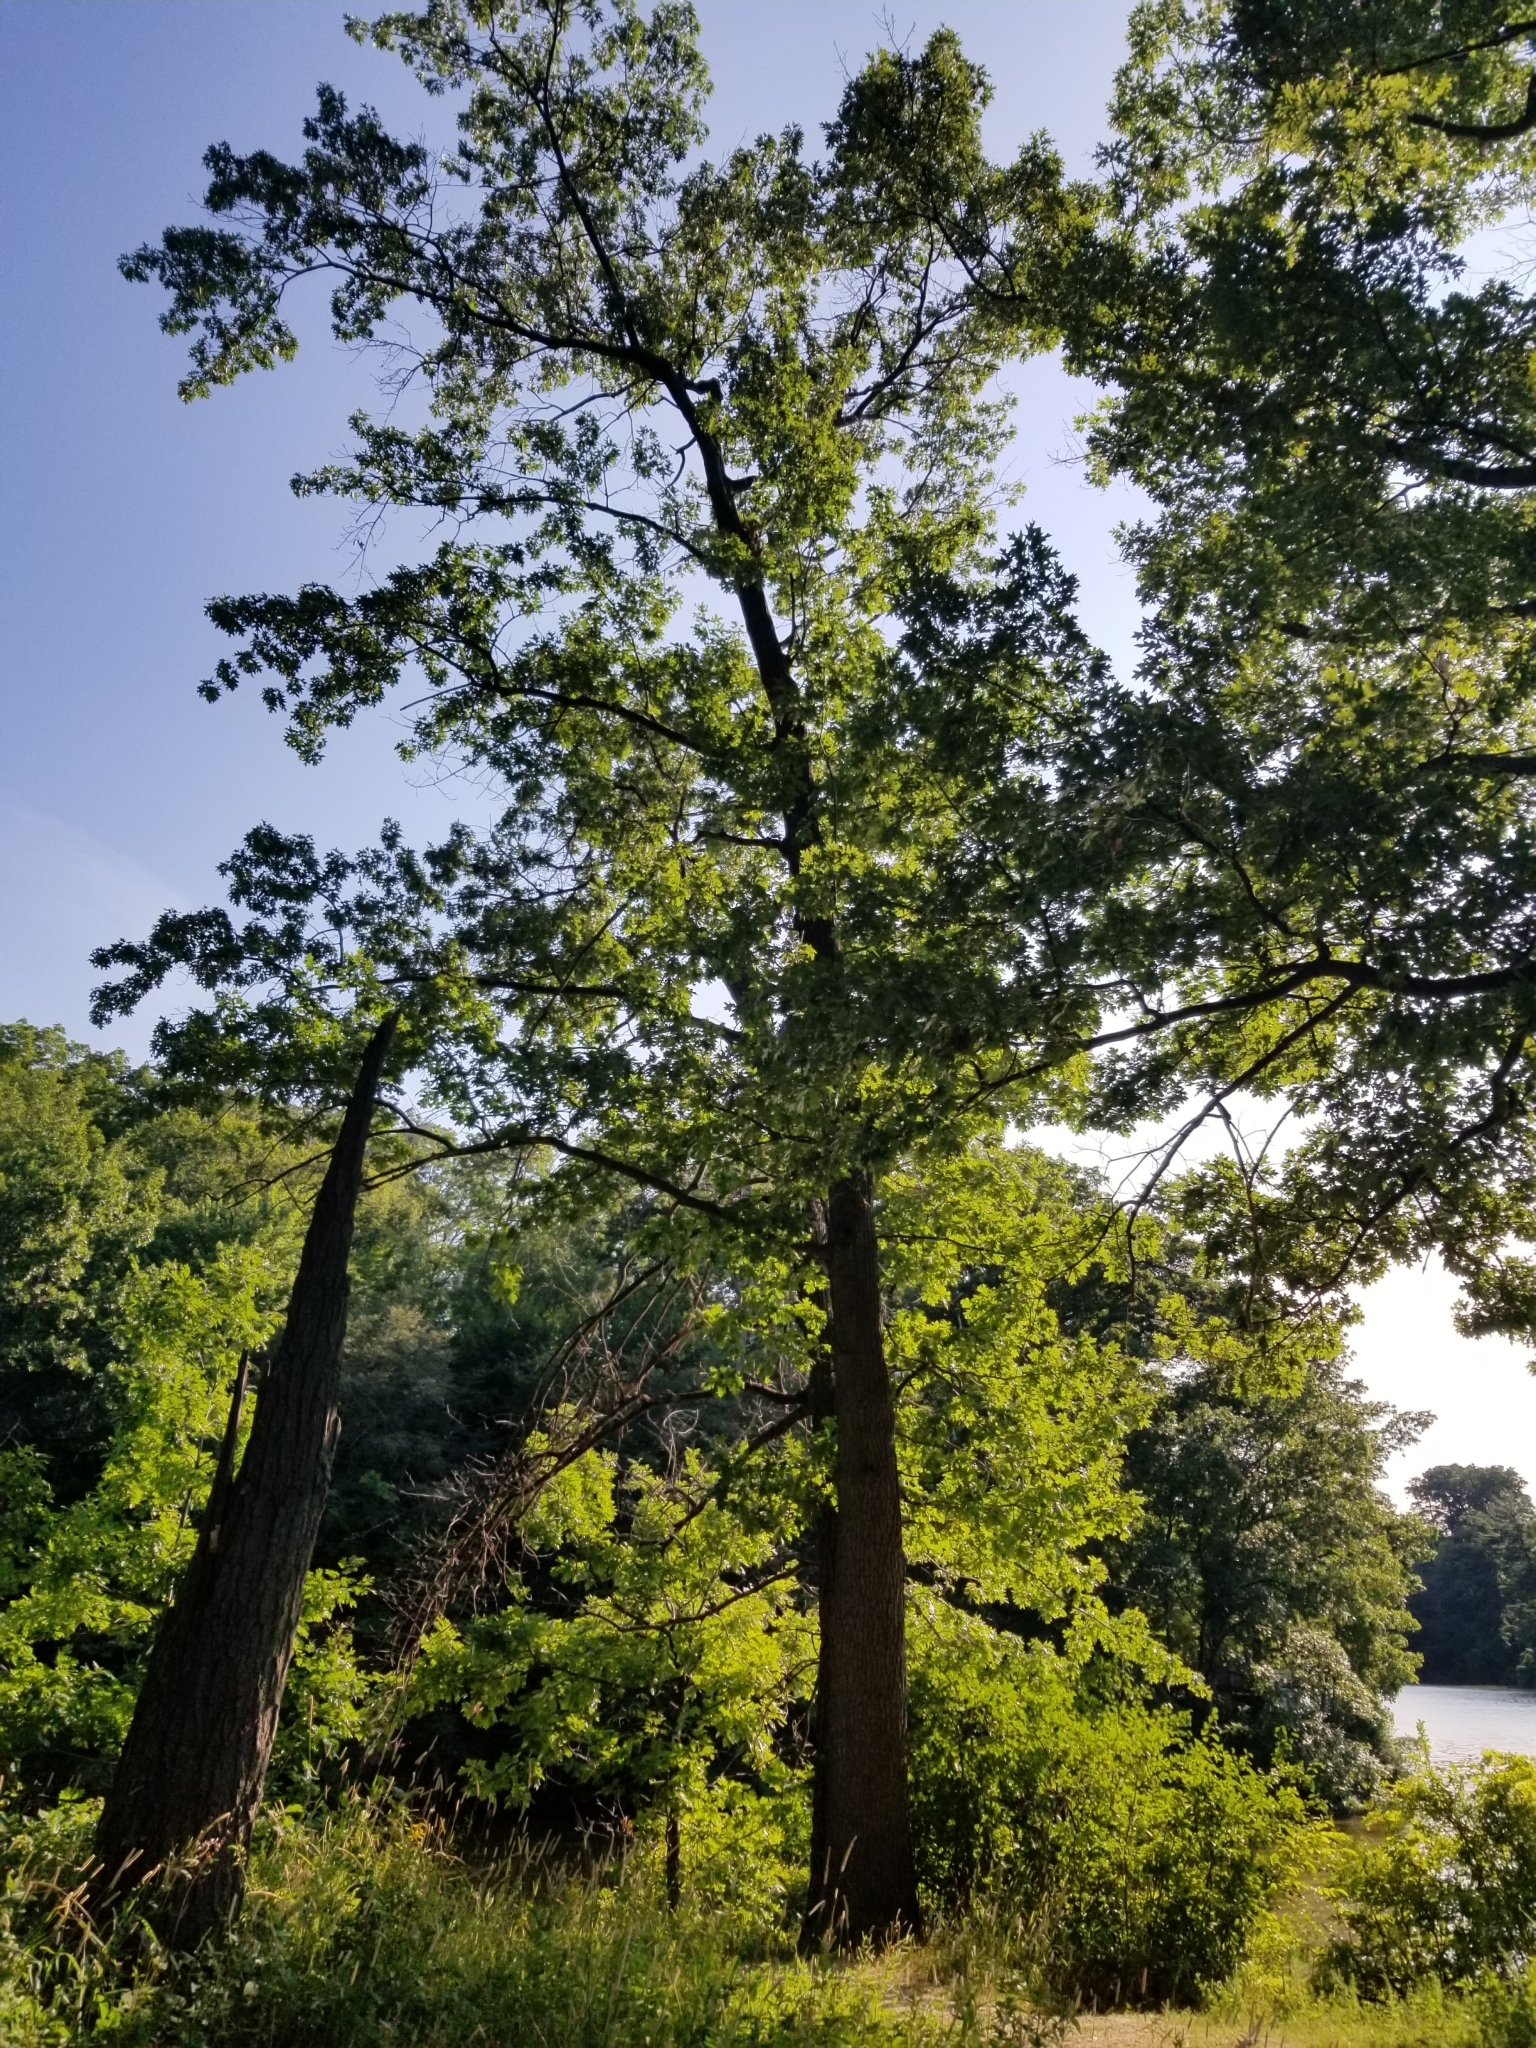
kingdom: Plantae
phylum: Tracheophyta
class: Magnoliopsida
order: Fagales
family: Fagaceae
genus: Quercus
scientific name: Quercus velutina
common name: Black oak
